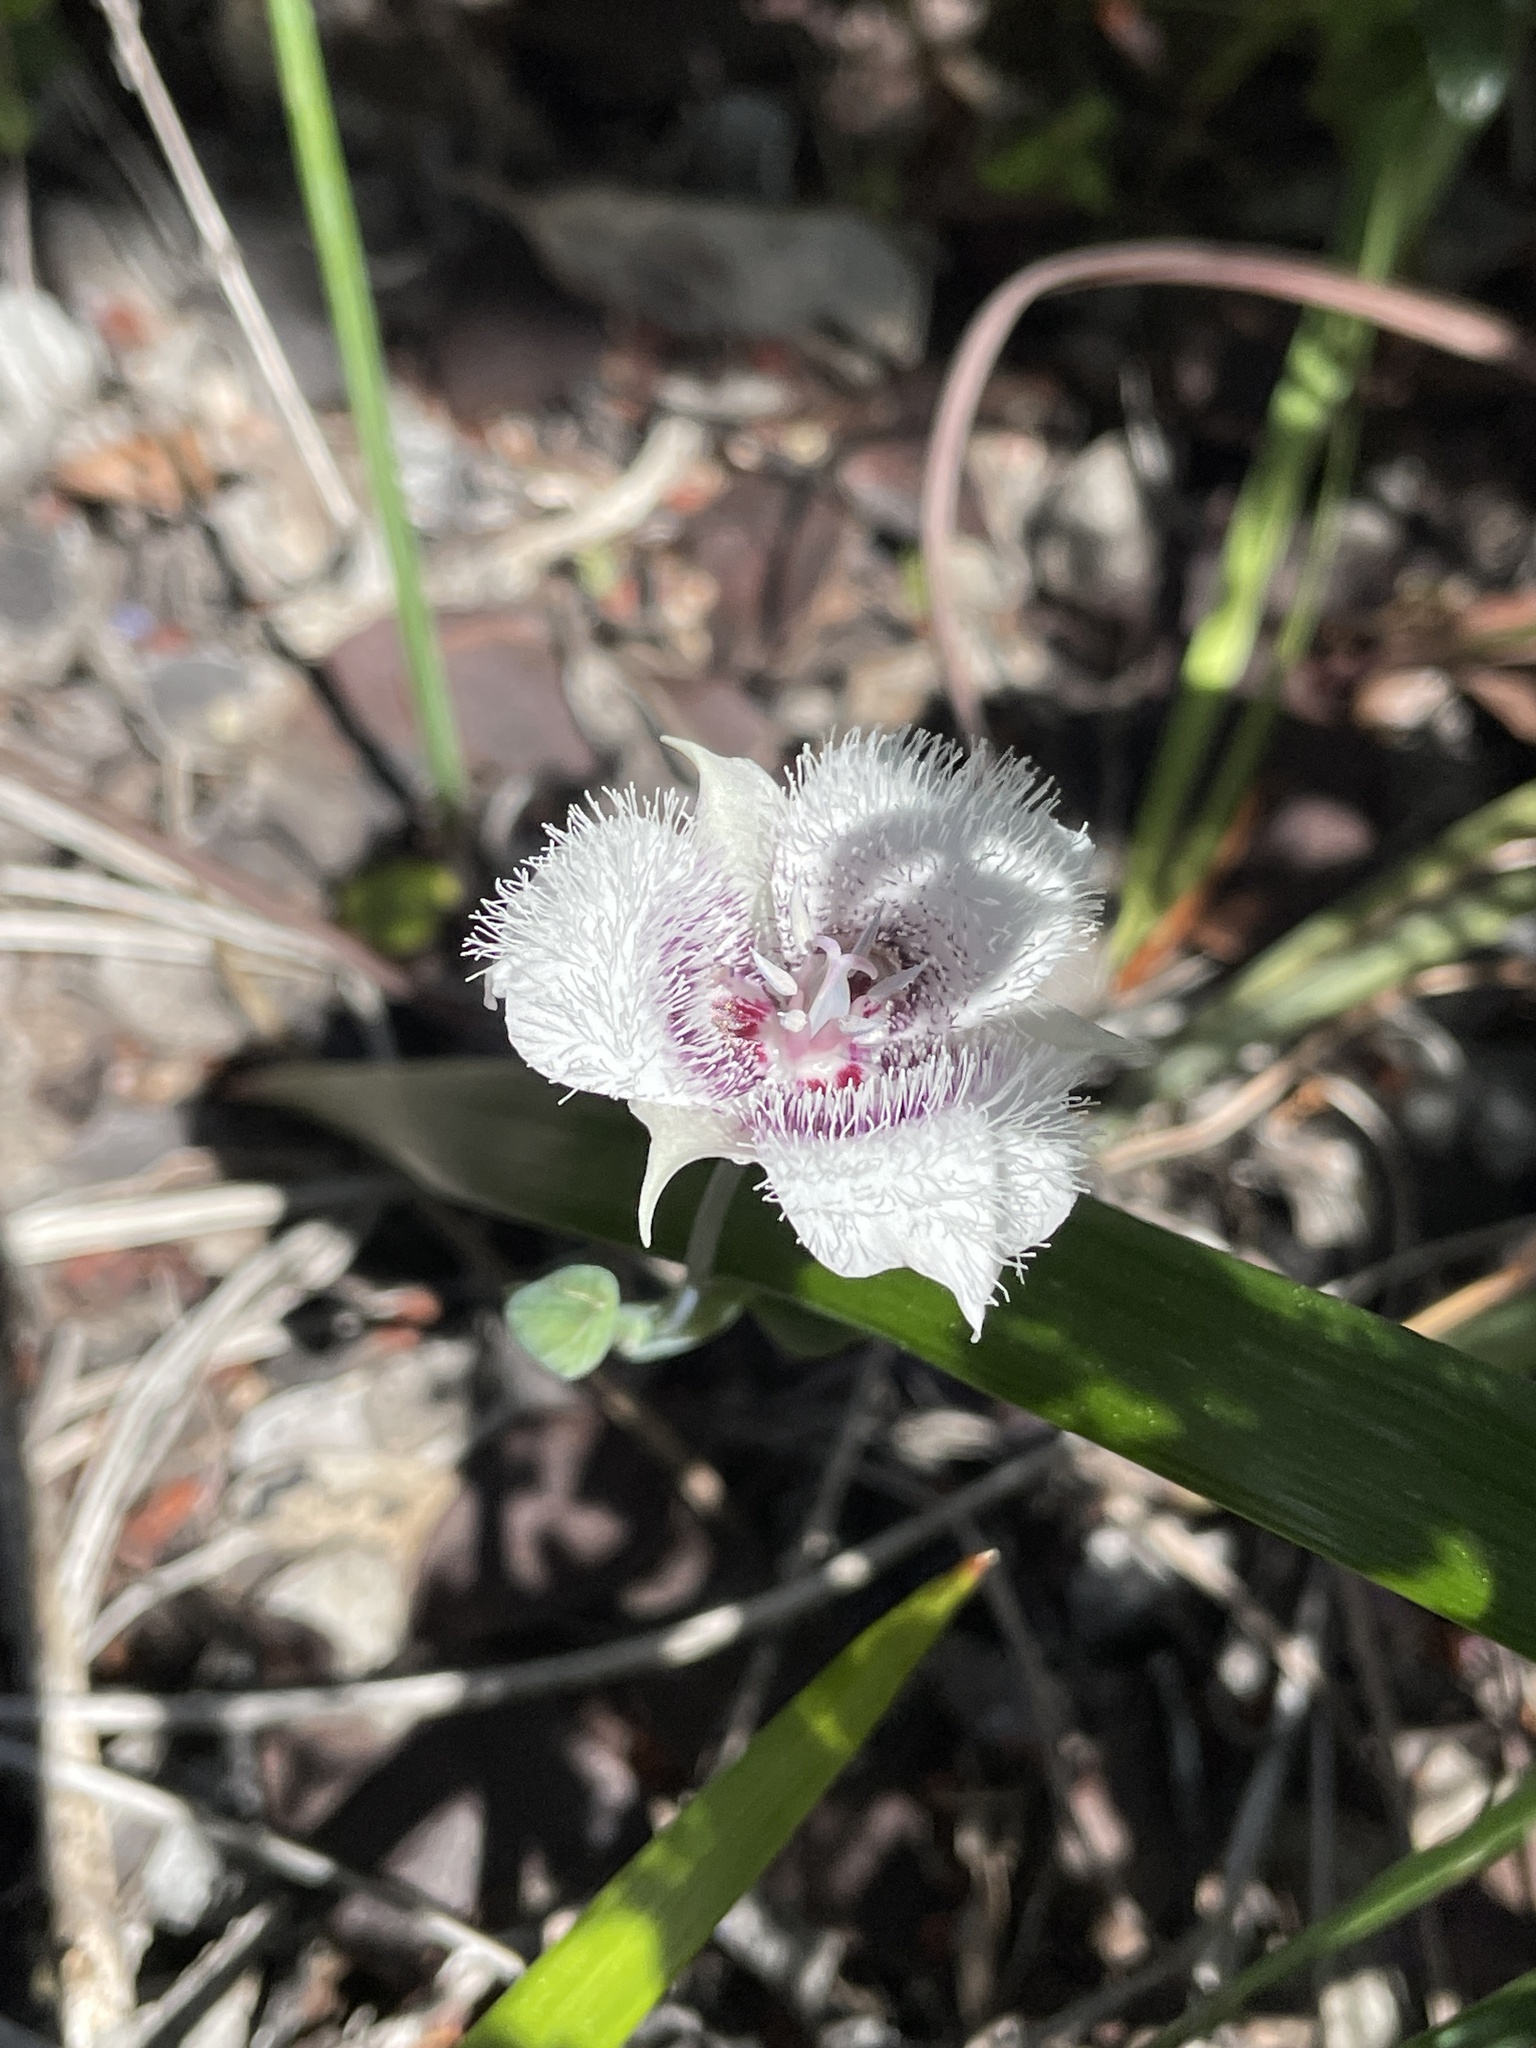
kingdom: Plantae
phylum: Tracheophyta
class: Liliopsida
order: Liliales
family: Liliaceae
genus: Calochortus
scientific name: Calochortus tolmiei
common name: Pussy-ears
